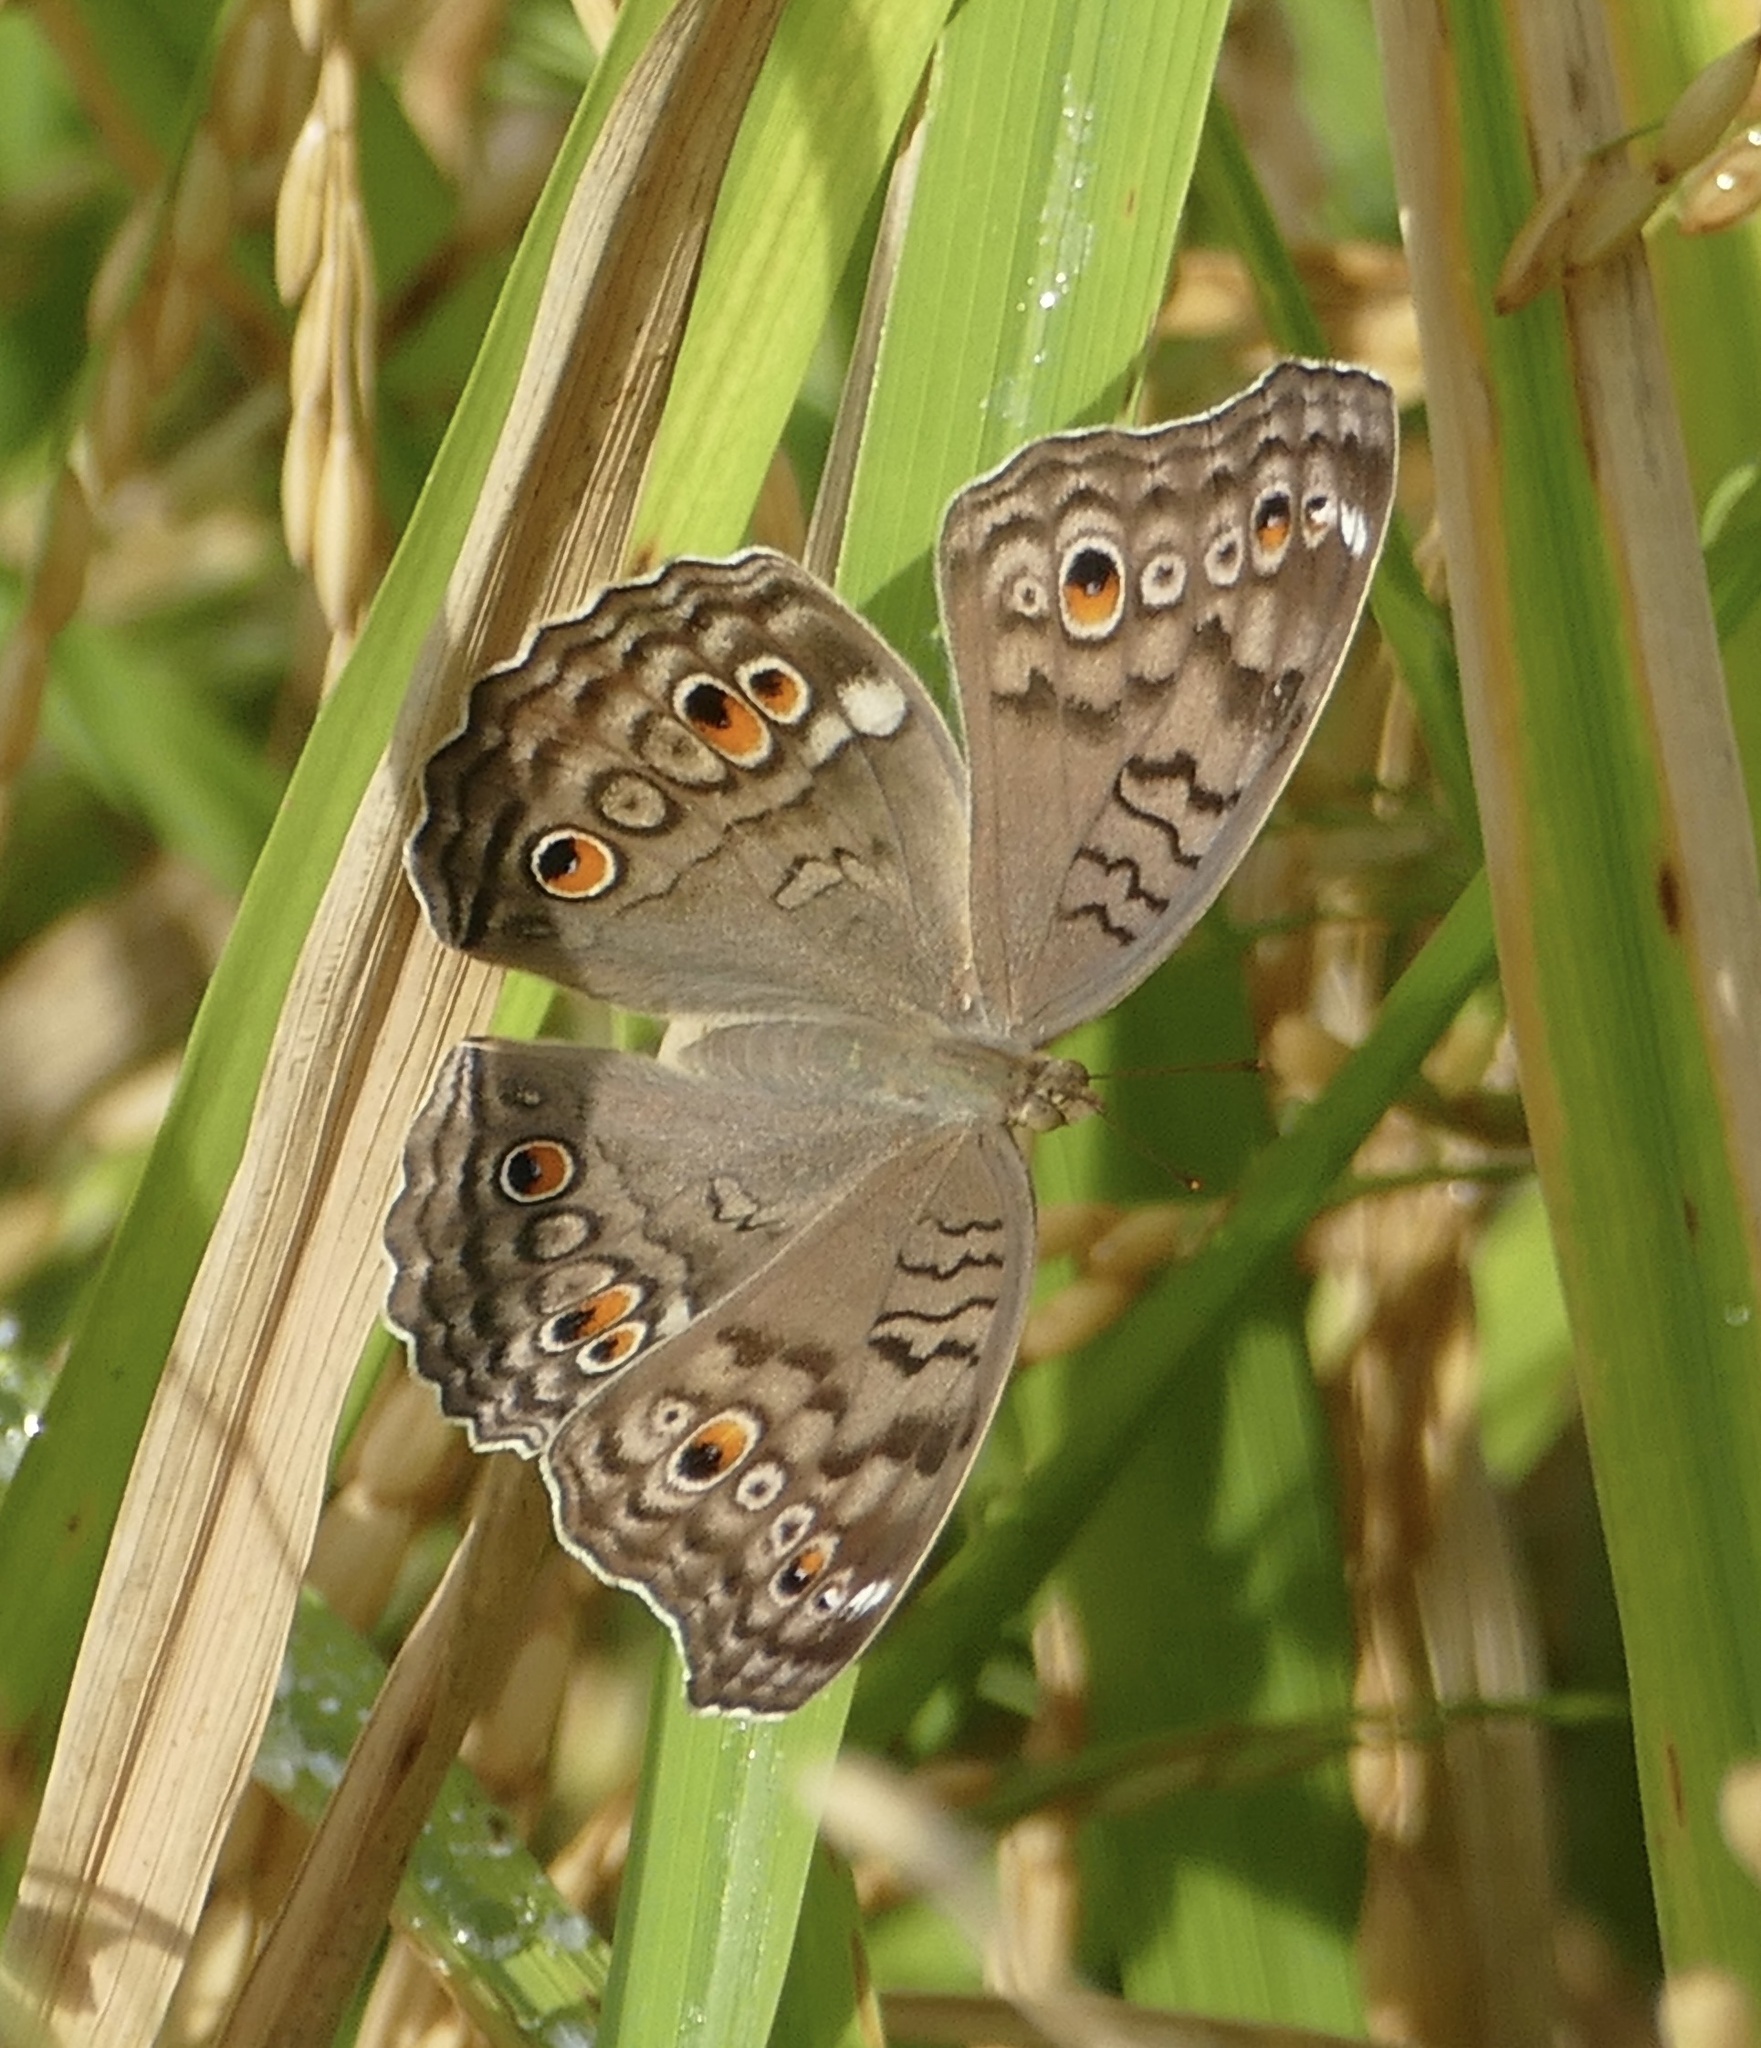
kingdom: Animalia
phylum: Arthropoda
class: Insecta
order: Lepidoptera
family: Nymphalidae
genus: Junonia
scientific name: Junonia atlites
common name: Grey pansy
